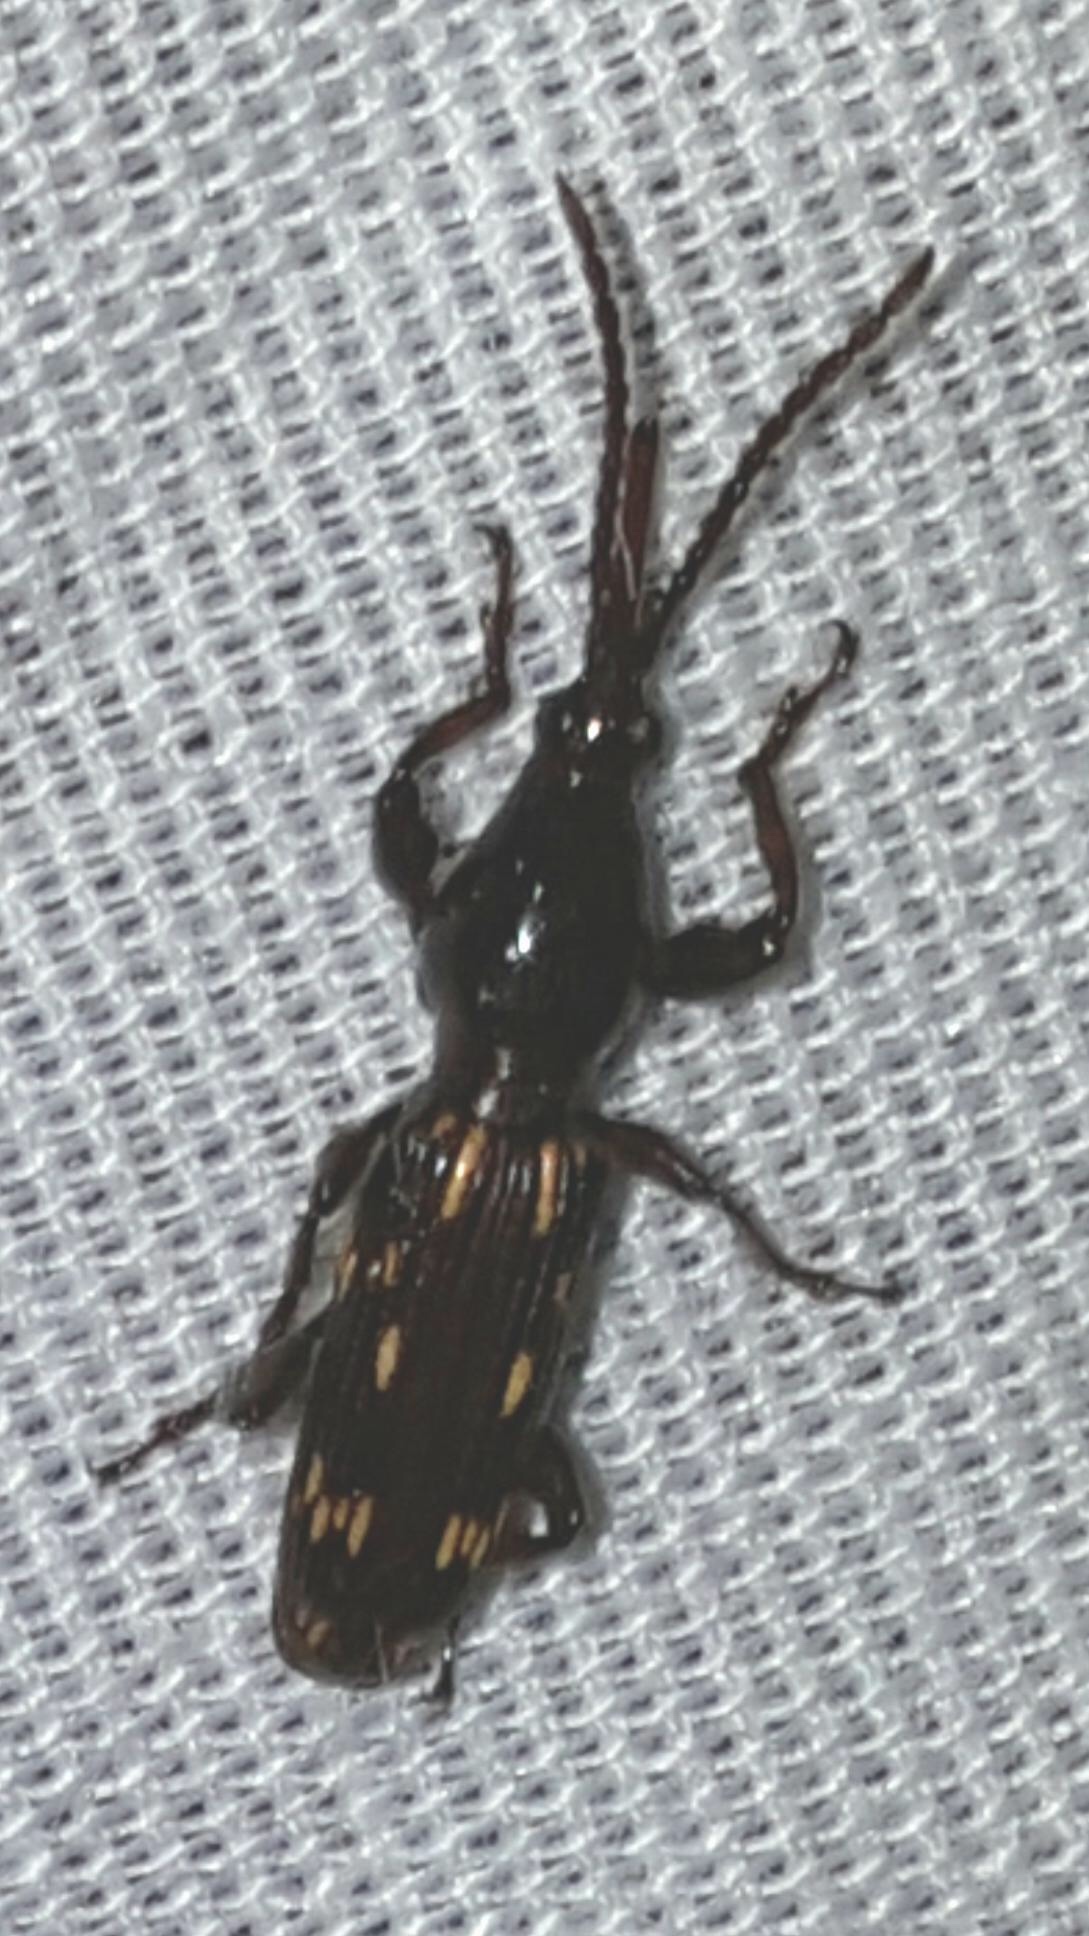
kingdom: Animalia
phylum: Arthropoda
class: Insecta
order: Coleoptera
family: Brentidae
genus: Arrenodes
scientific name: Arrenodes minutus
